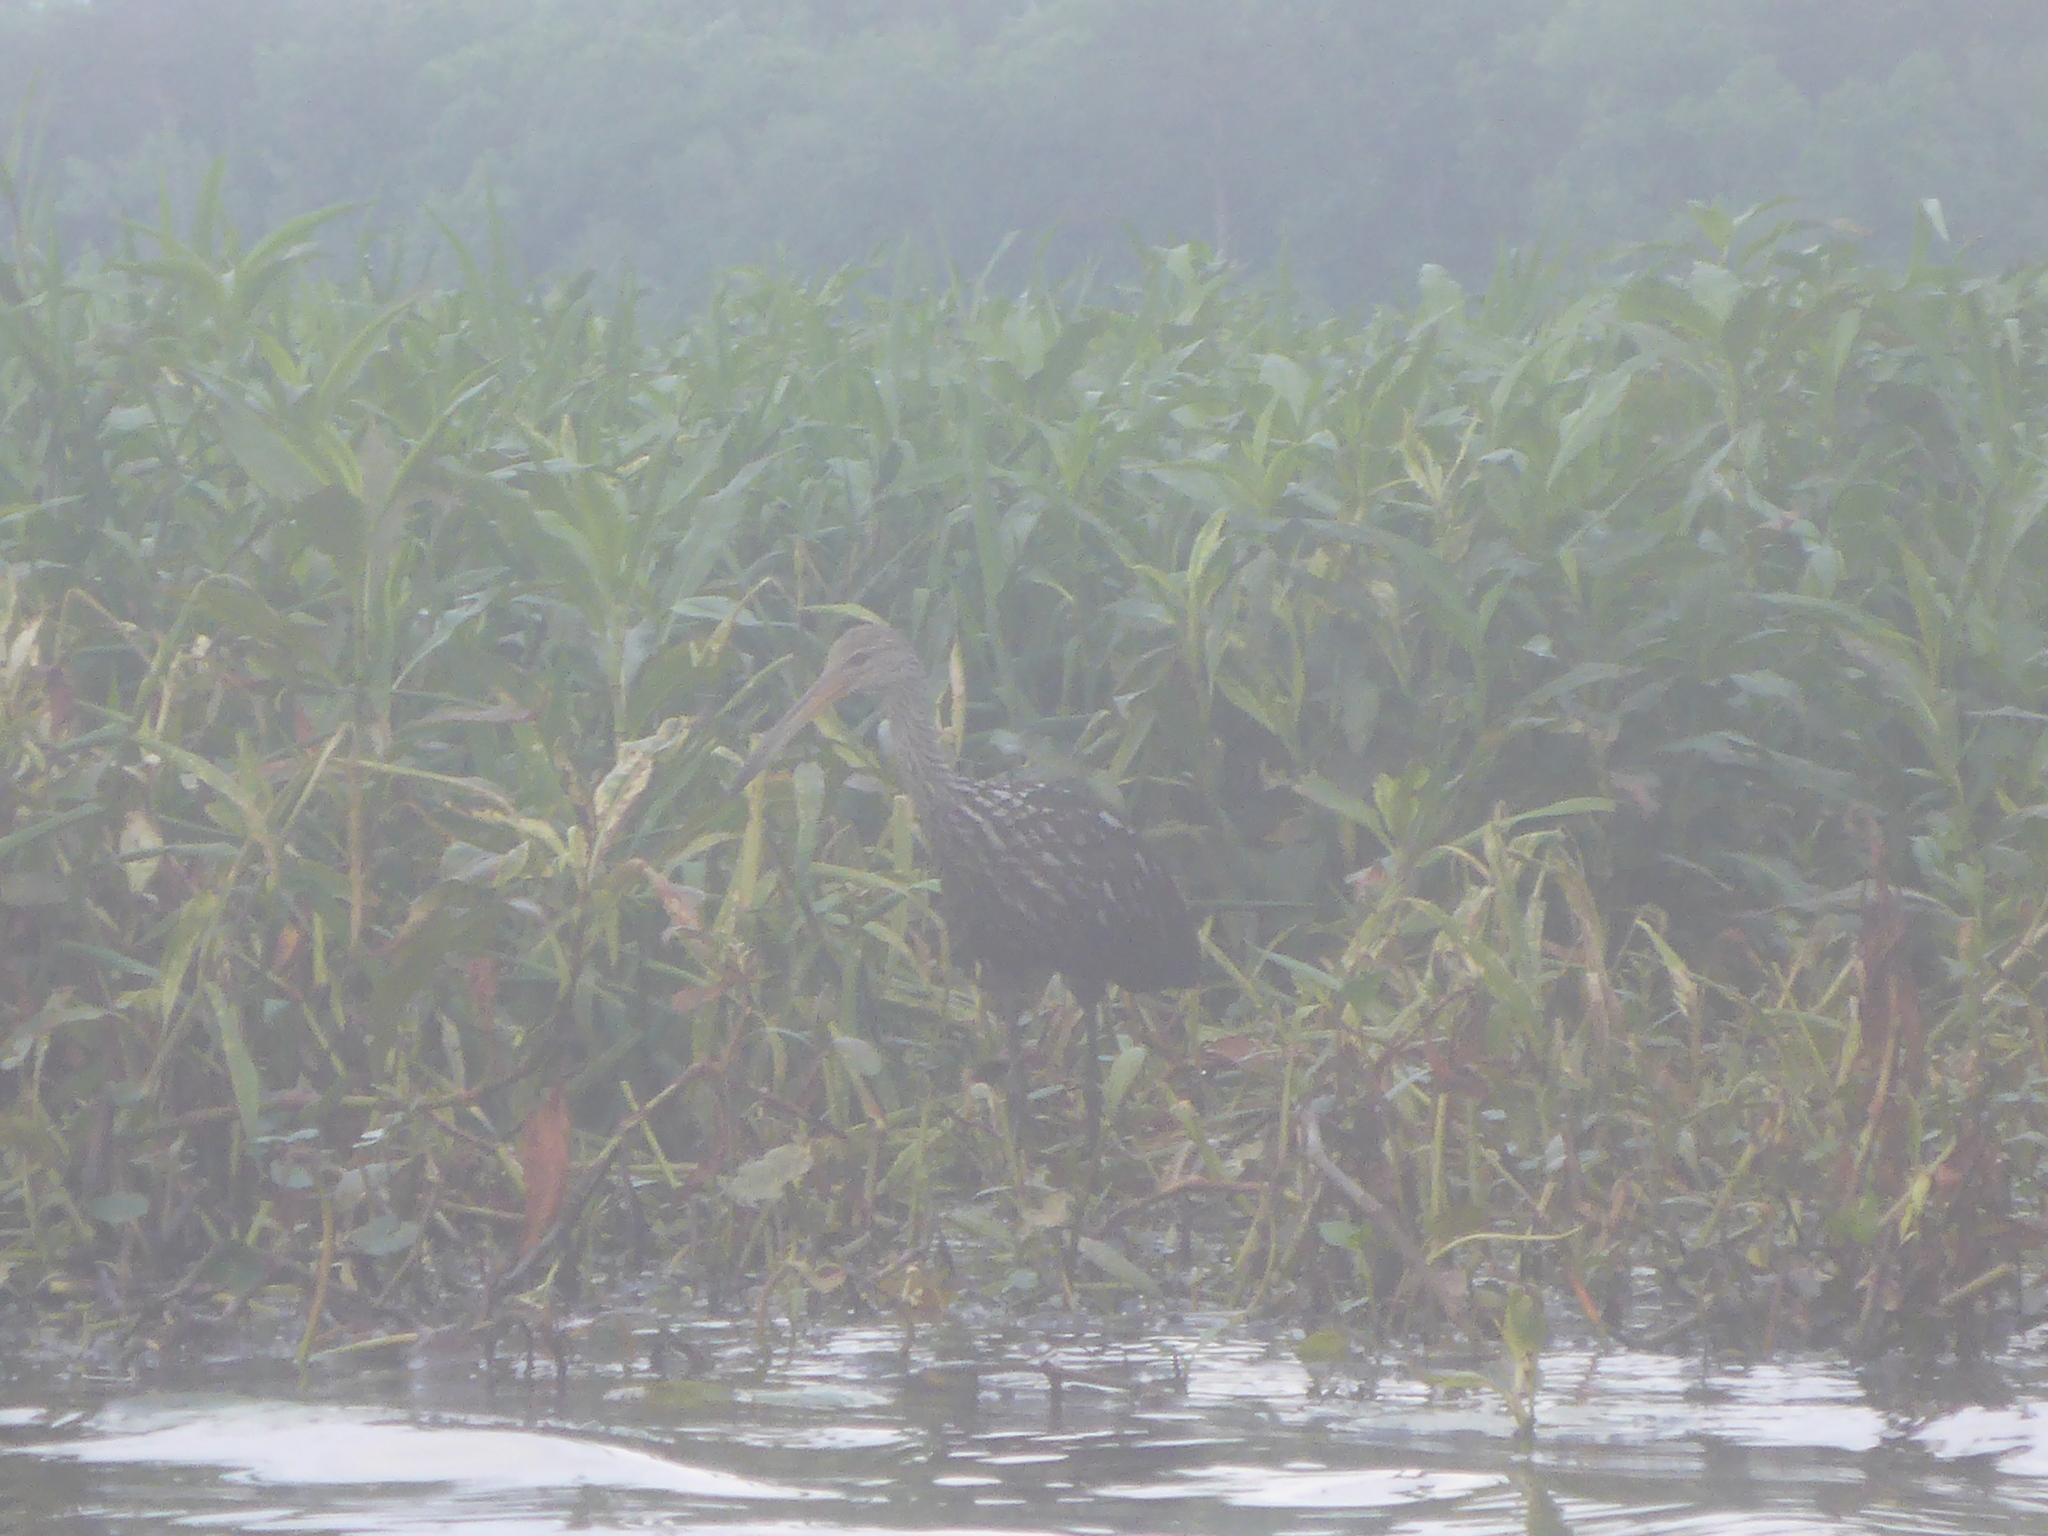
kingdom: Animalia
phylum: Chordata
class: Aves
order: Gruiformes
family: Aramidae
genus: Aramus
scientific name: Aramus guarauna
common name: Limpkin
